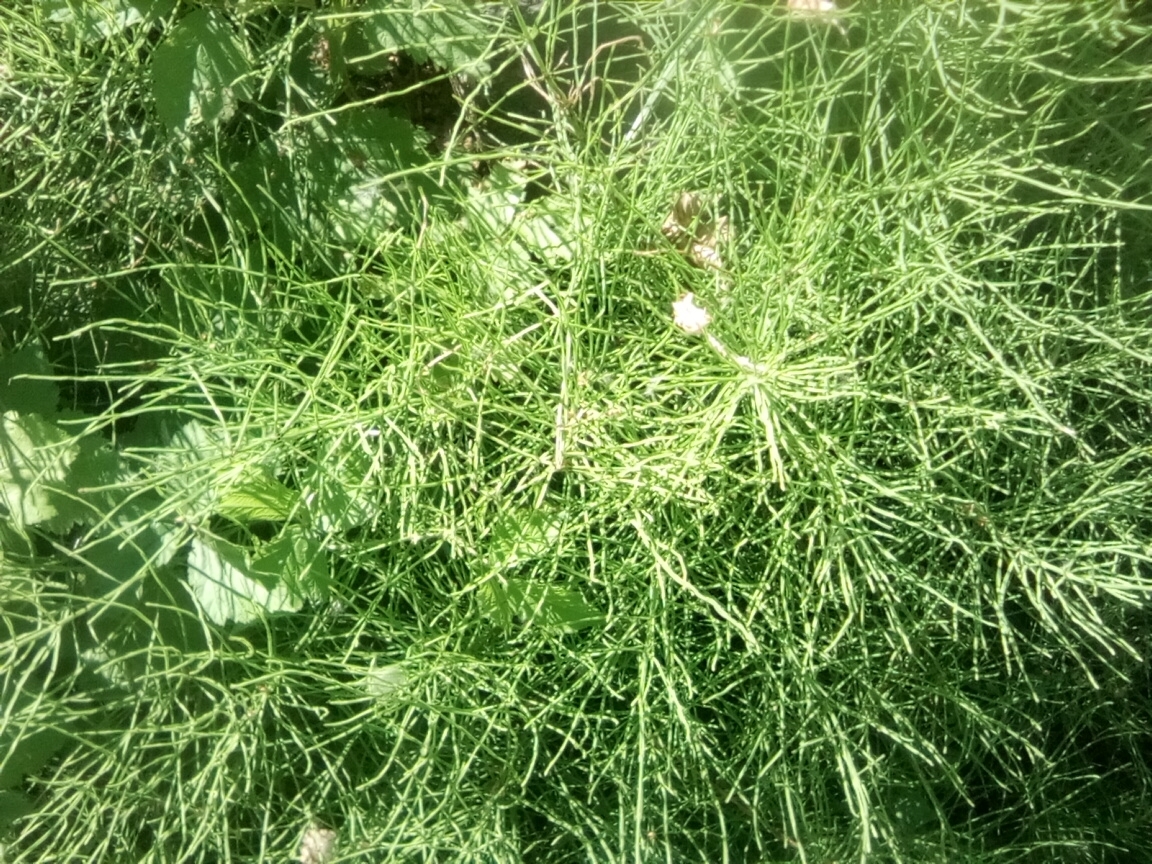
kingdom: Plantae
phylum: Tracheophyta
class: Polypodiopsida
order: Equisetales
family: Equisetaceae
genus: Equisetum
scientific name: Equisetum arvense
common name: Field horsetail
